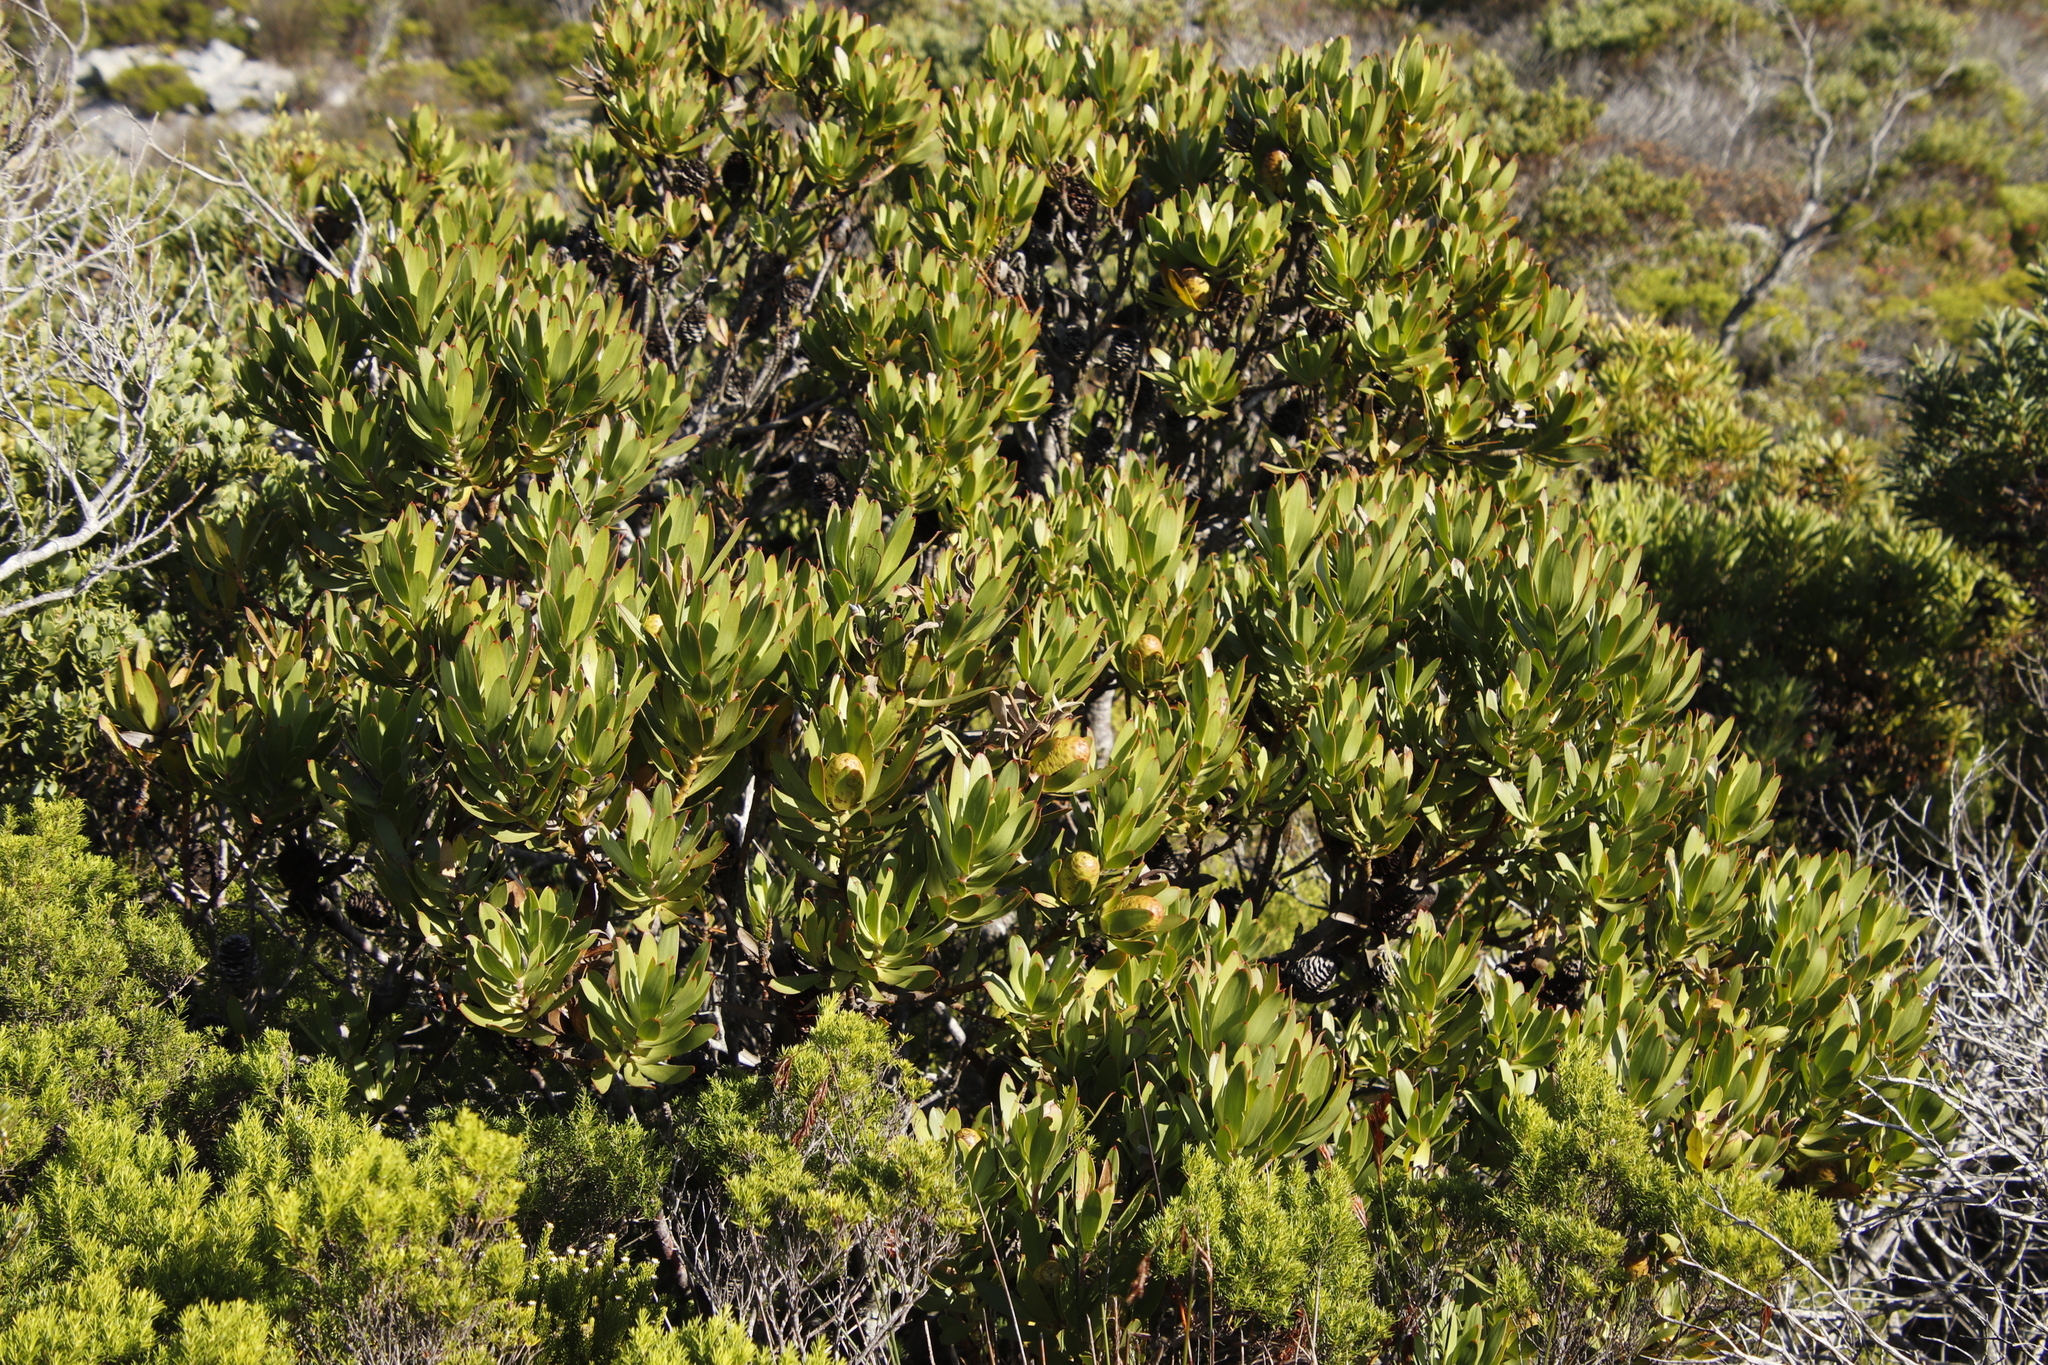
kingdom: Plantae
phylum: Tracheophyta
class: Magnoliopsida
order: Proteales
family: Proteaceae
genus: Leucadendron
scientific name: Leucadendron gandogeri
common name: Broad-leaf conebush
